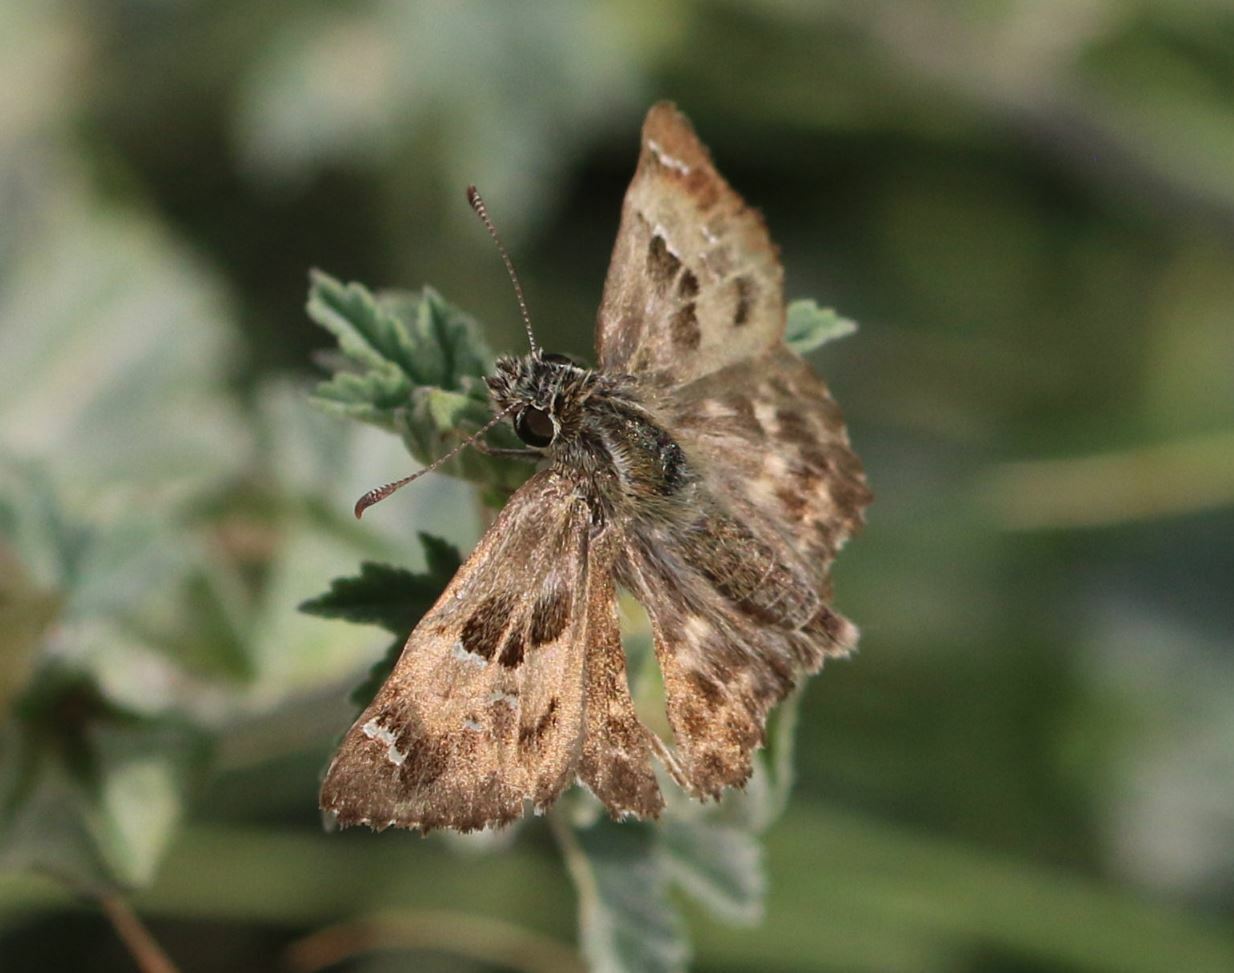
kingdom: Animalia
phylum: Arthropoda
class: Insecta
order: Lepidoptera
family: Hesperiidae
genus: Carcharodus
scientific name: Carcharodus alceae
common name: Mallow skipper
